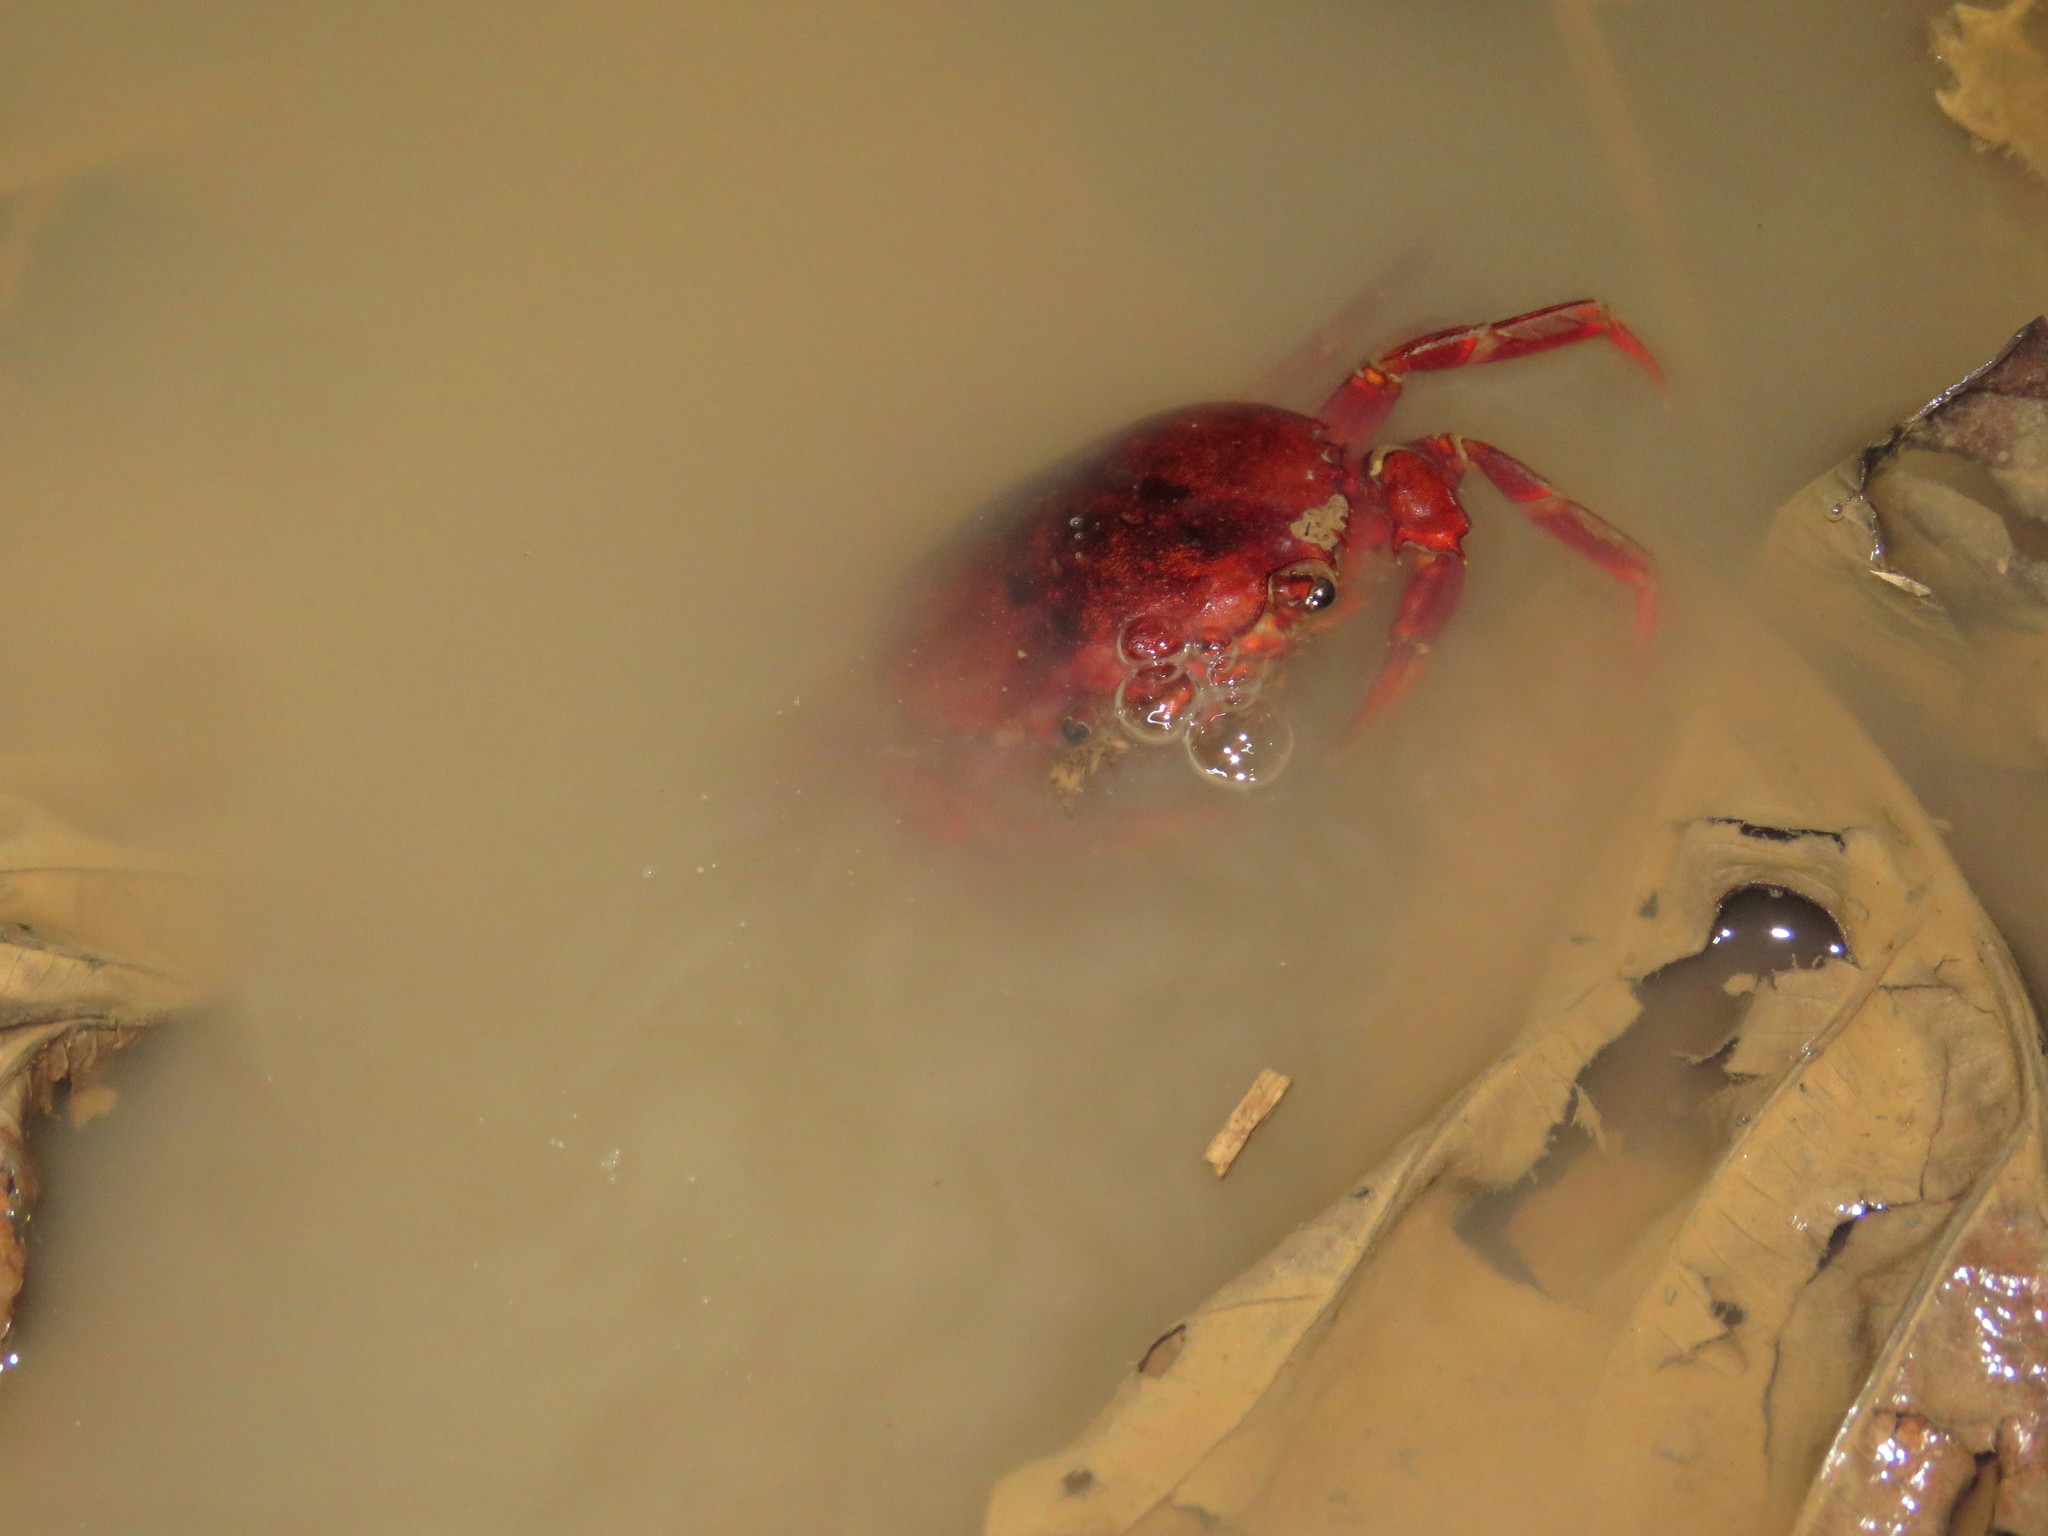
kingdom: Animalia
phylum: Arthropoda
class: Malacostraca
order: Decapoda
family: Trichodactylidae
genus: Dilocarcinus
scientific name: Dilocarcinus pagei
